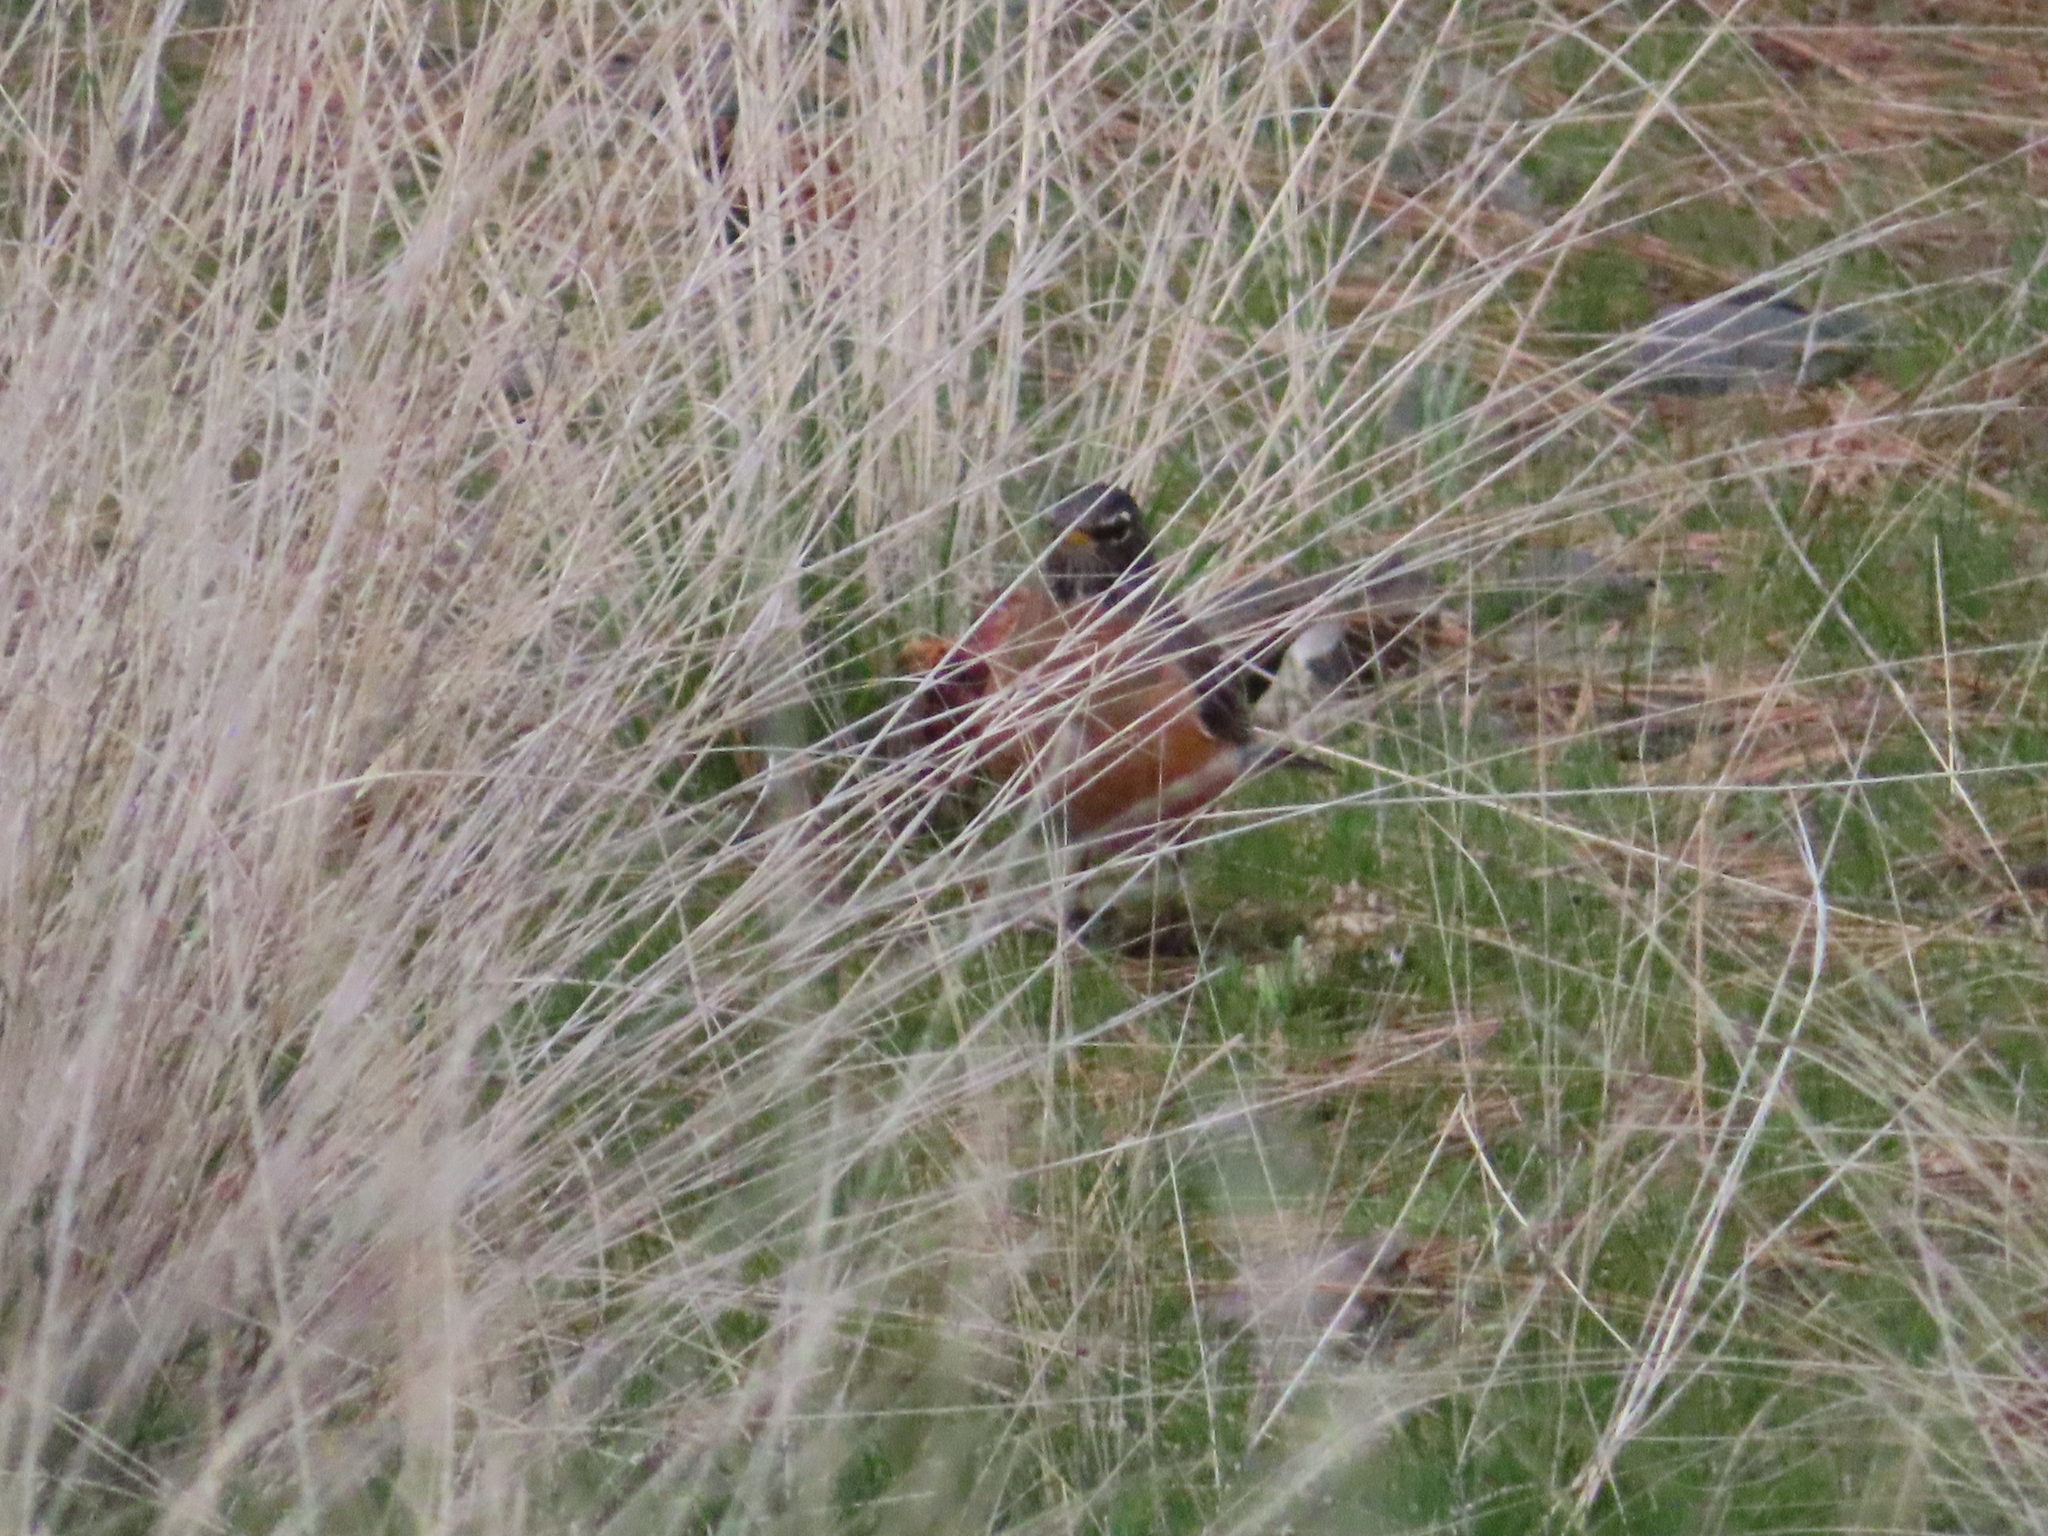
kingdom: Animalia
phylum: Chordata
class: Aves
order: Passeriformes
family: Turdidae
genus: Turdus
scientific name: Turdus migratorius
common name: American robin
